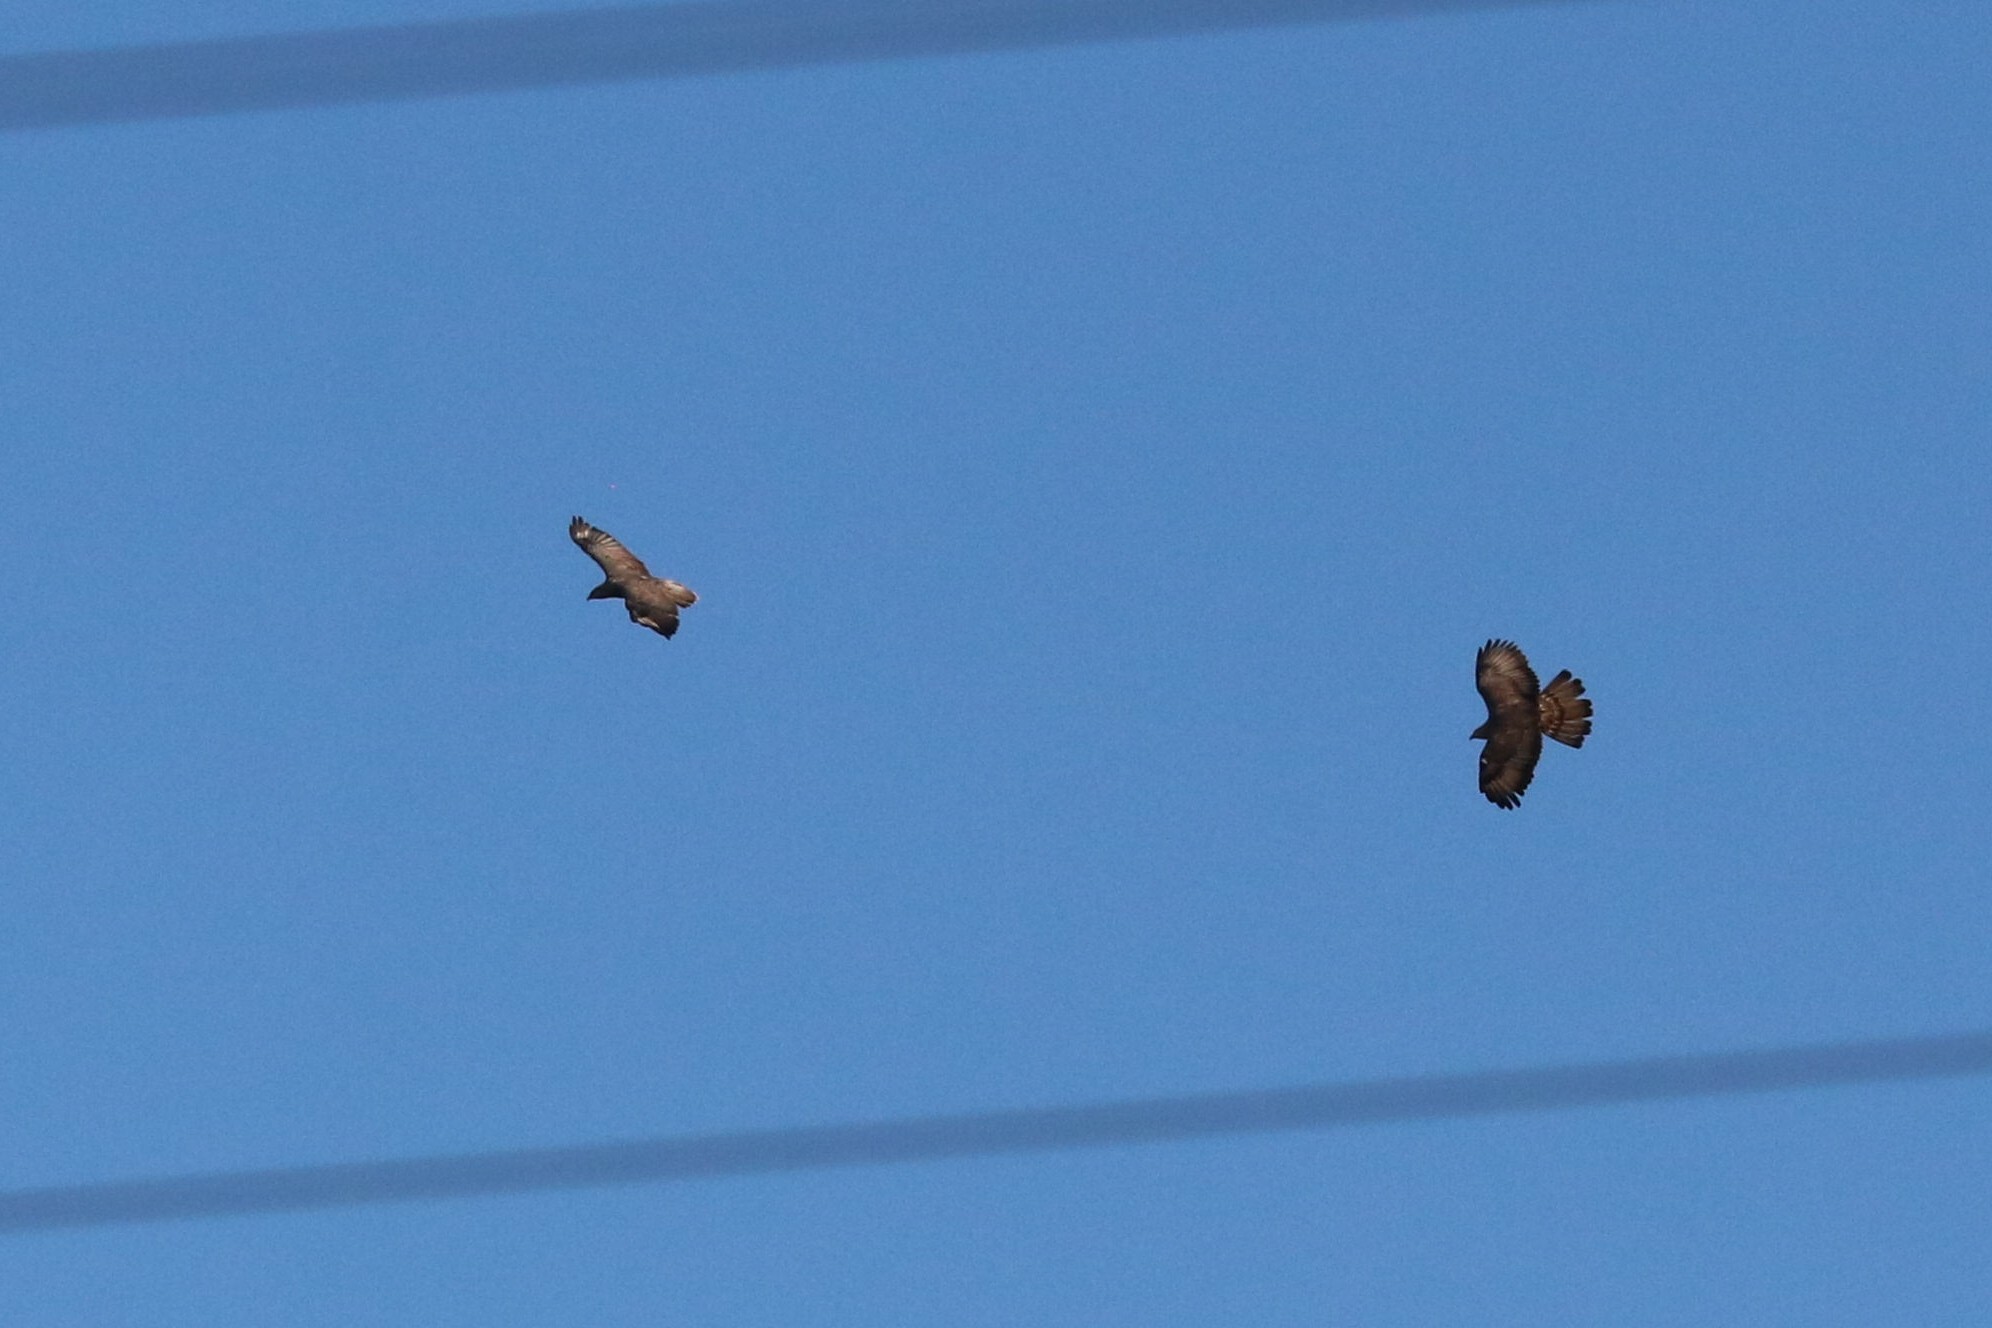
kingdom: Animalia
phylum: Chordata
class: Aves
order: Accipitriformes
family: Accipitridae
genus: Buteo
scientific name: Buteo buteo
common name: Common buzzard
